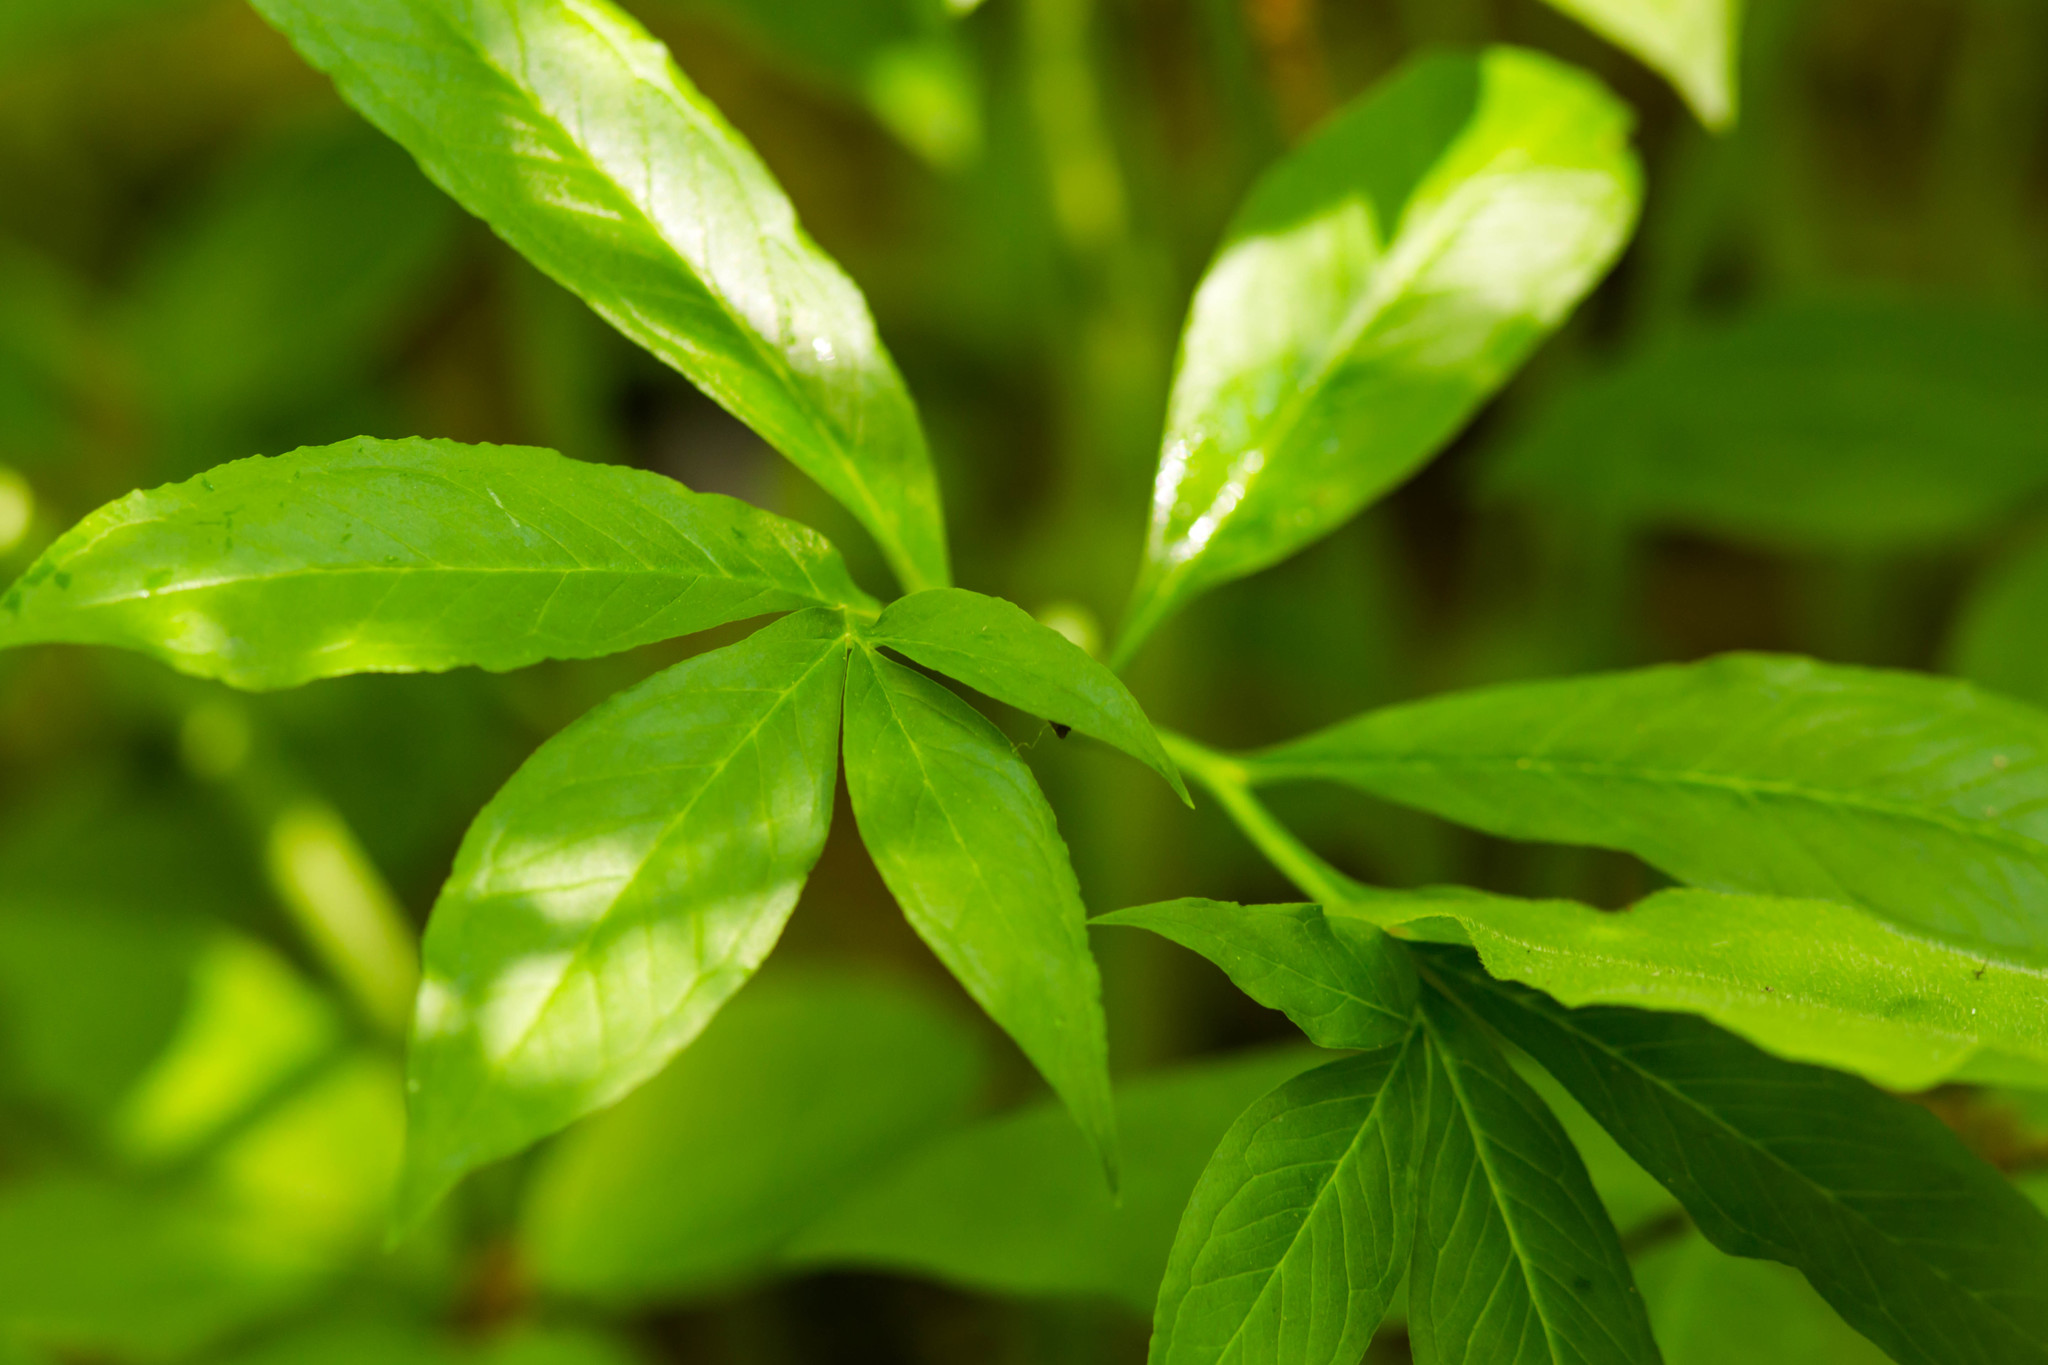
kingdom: Plantae
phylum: Tracheophyta
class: Liliopsida
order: Alismatales
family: Araceae
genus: Arisaema
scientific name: Arisaema dracontium
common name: Dragon-arum
